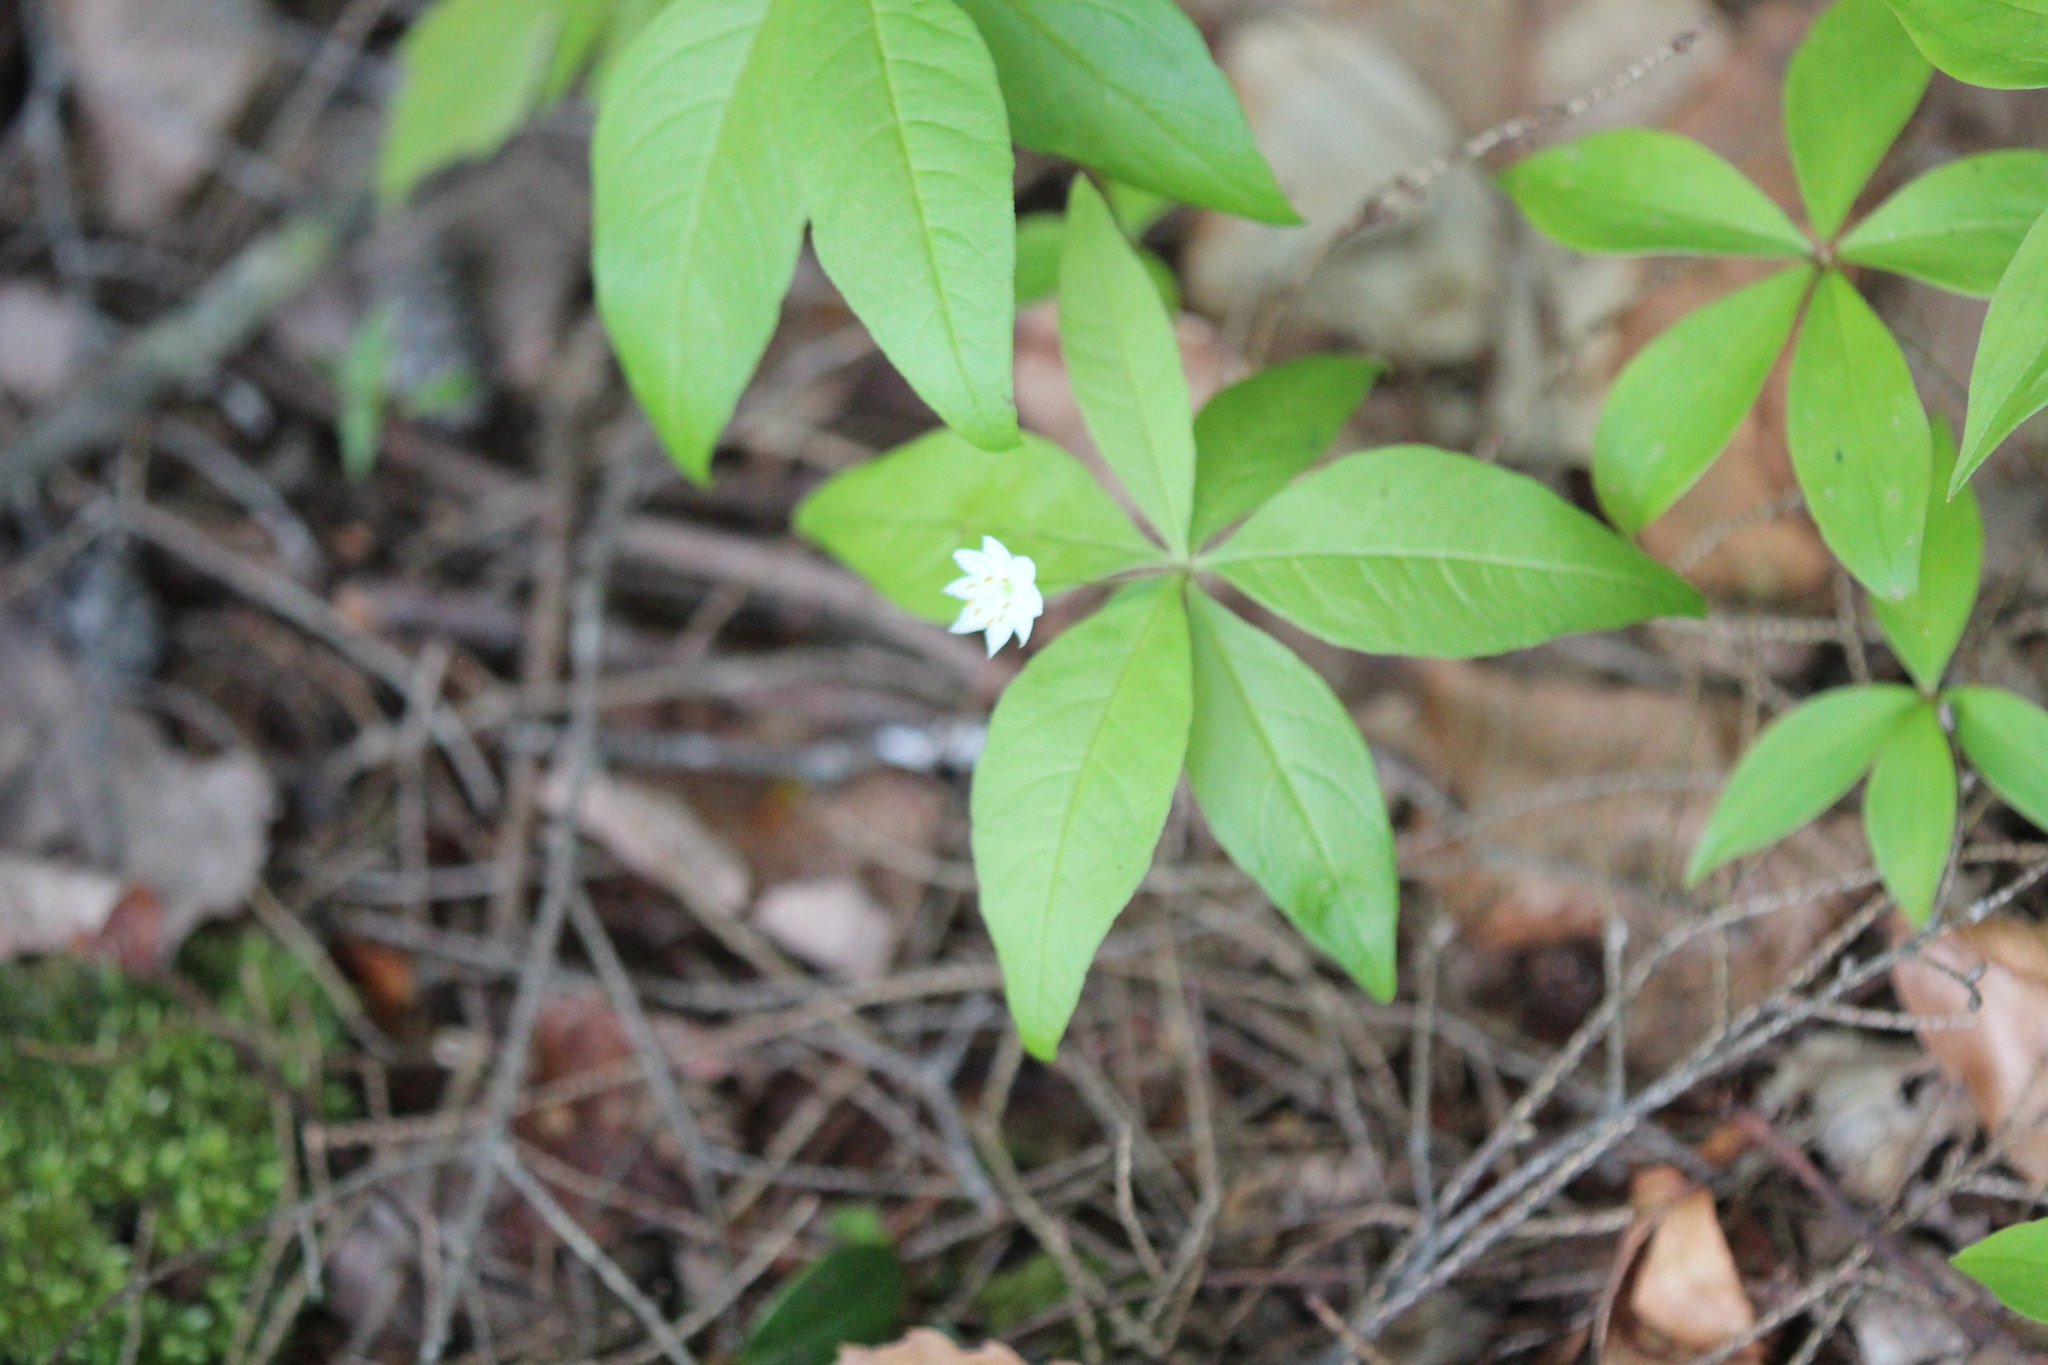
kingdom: Plantae
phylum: Tracheophyta
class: Magnoliopsida
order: Ericales
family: Primulaceae
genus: Lysimachia
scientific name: Lysimachia borealis
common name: American starflower
